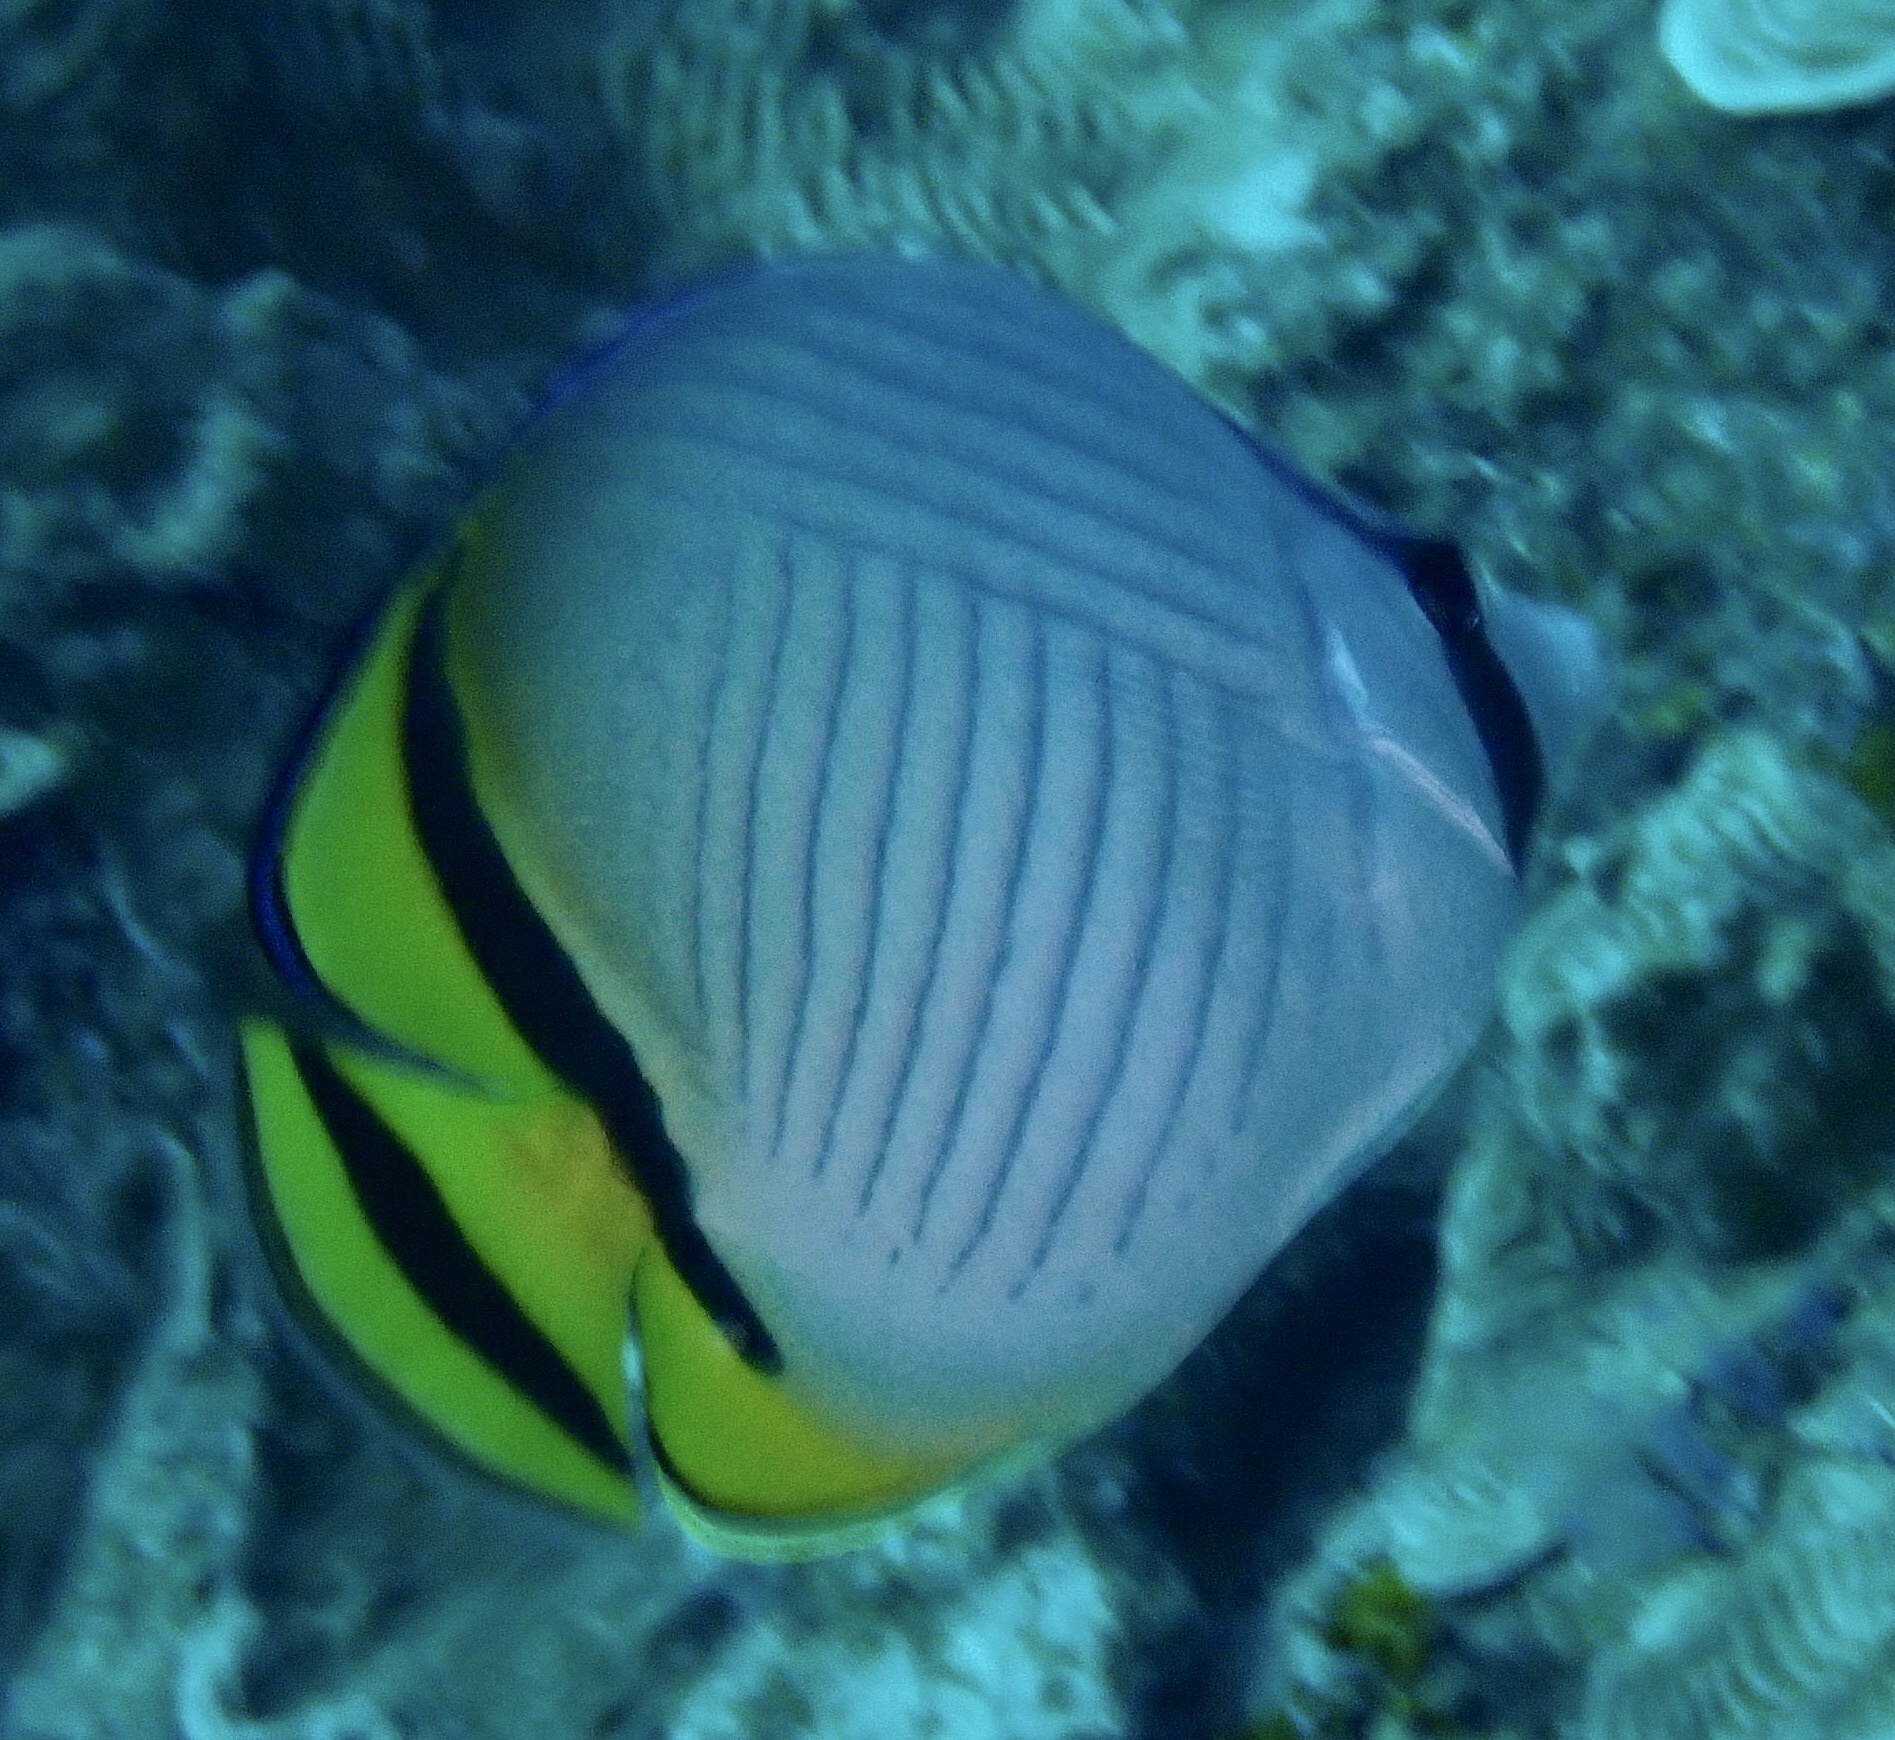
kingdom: Animalia
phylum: Chordata
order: Perciformes
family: Chaetodontidae
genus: Chaetodon
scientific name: Chaetodon vagabundus
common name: Vagabond butterflyfish
